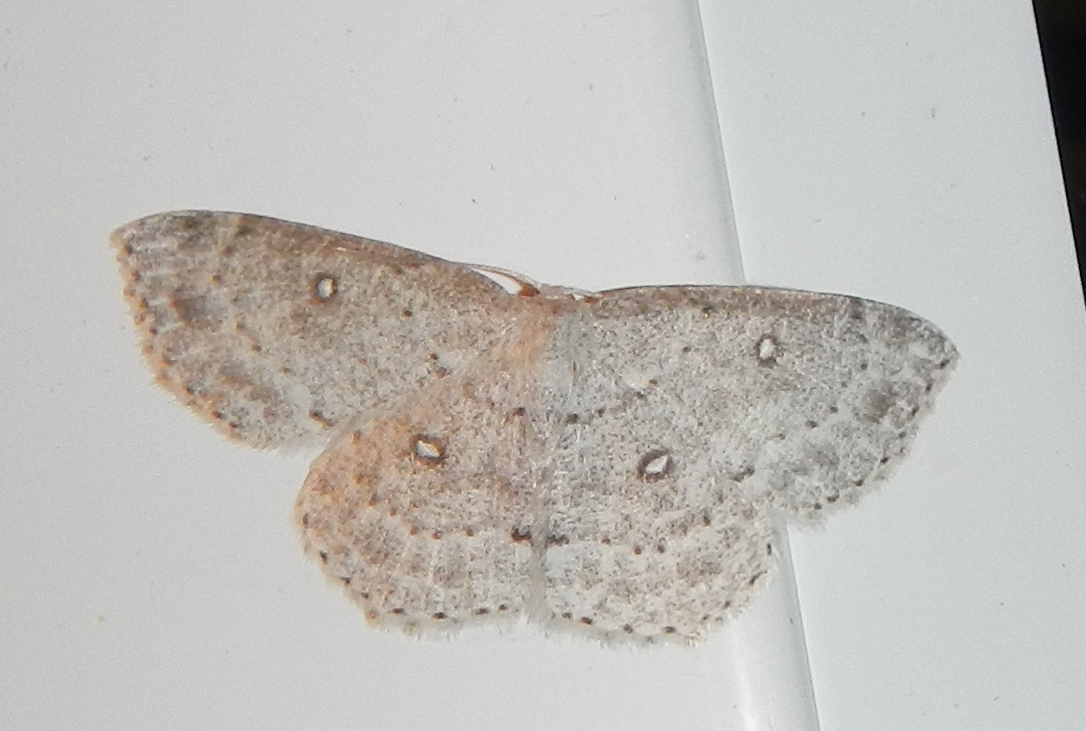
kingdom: Animalia
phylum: Arthropoda
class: Insecta
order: Lepidoptera
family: Geometridae
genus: Cyclophora
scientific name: Cyclophora pendulinaria
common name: Sweet fern geometer
